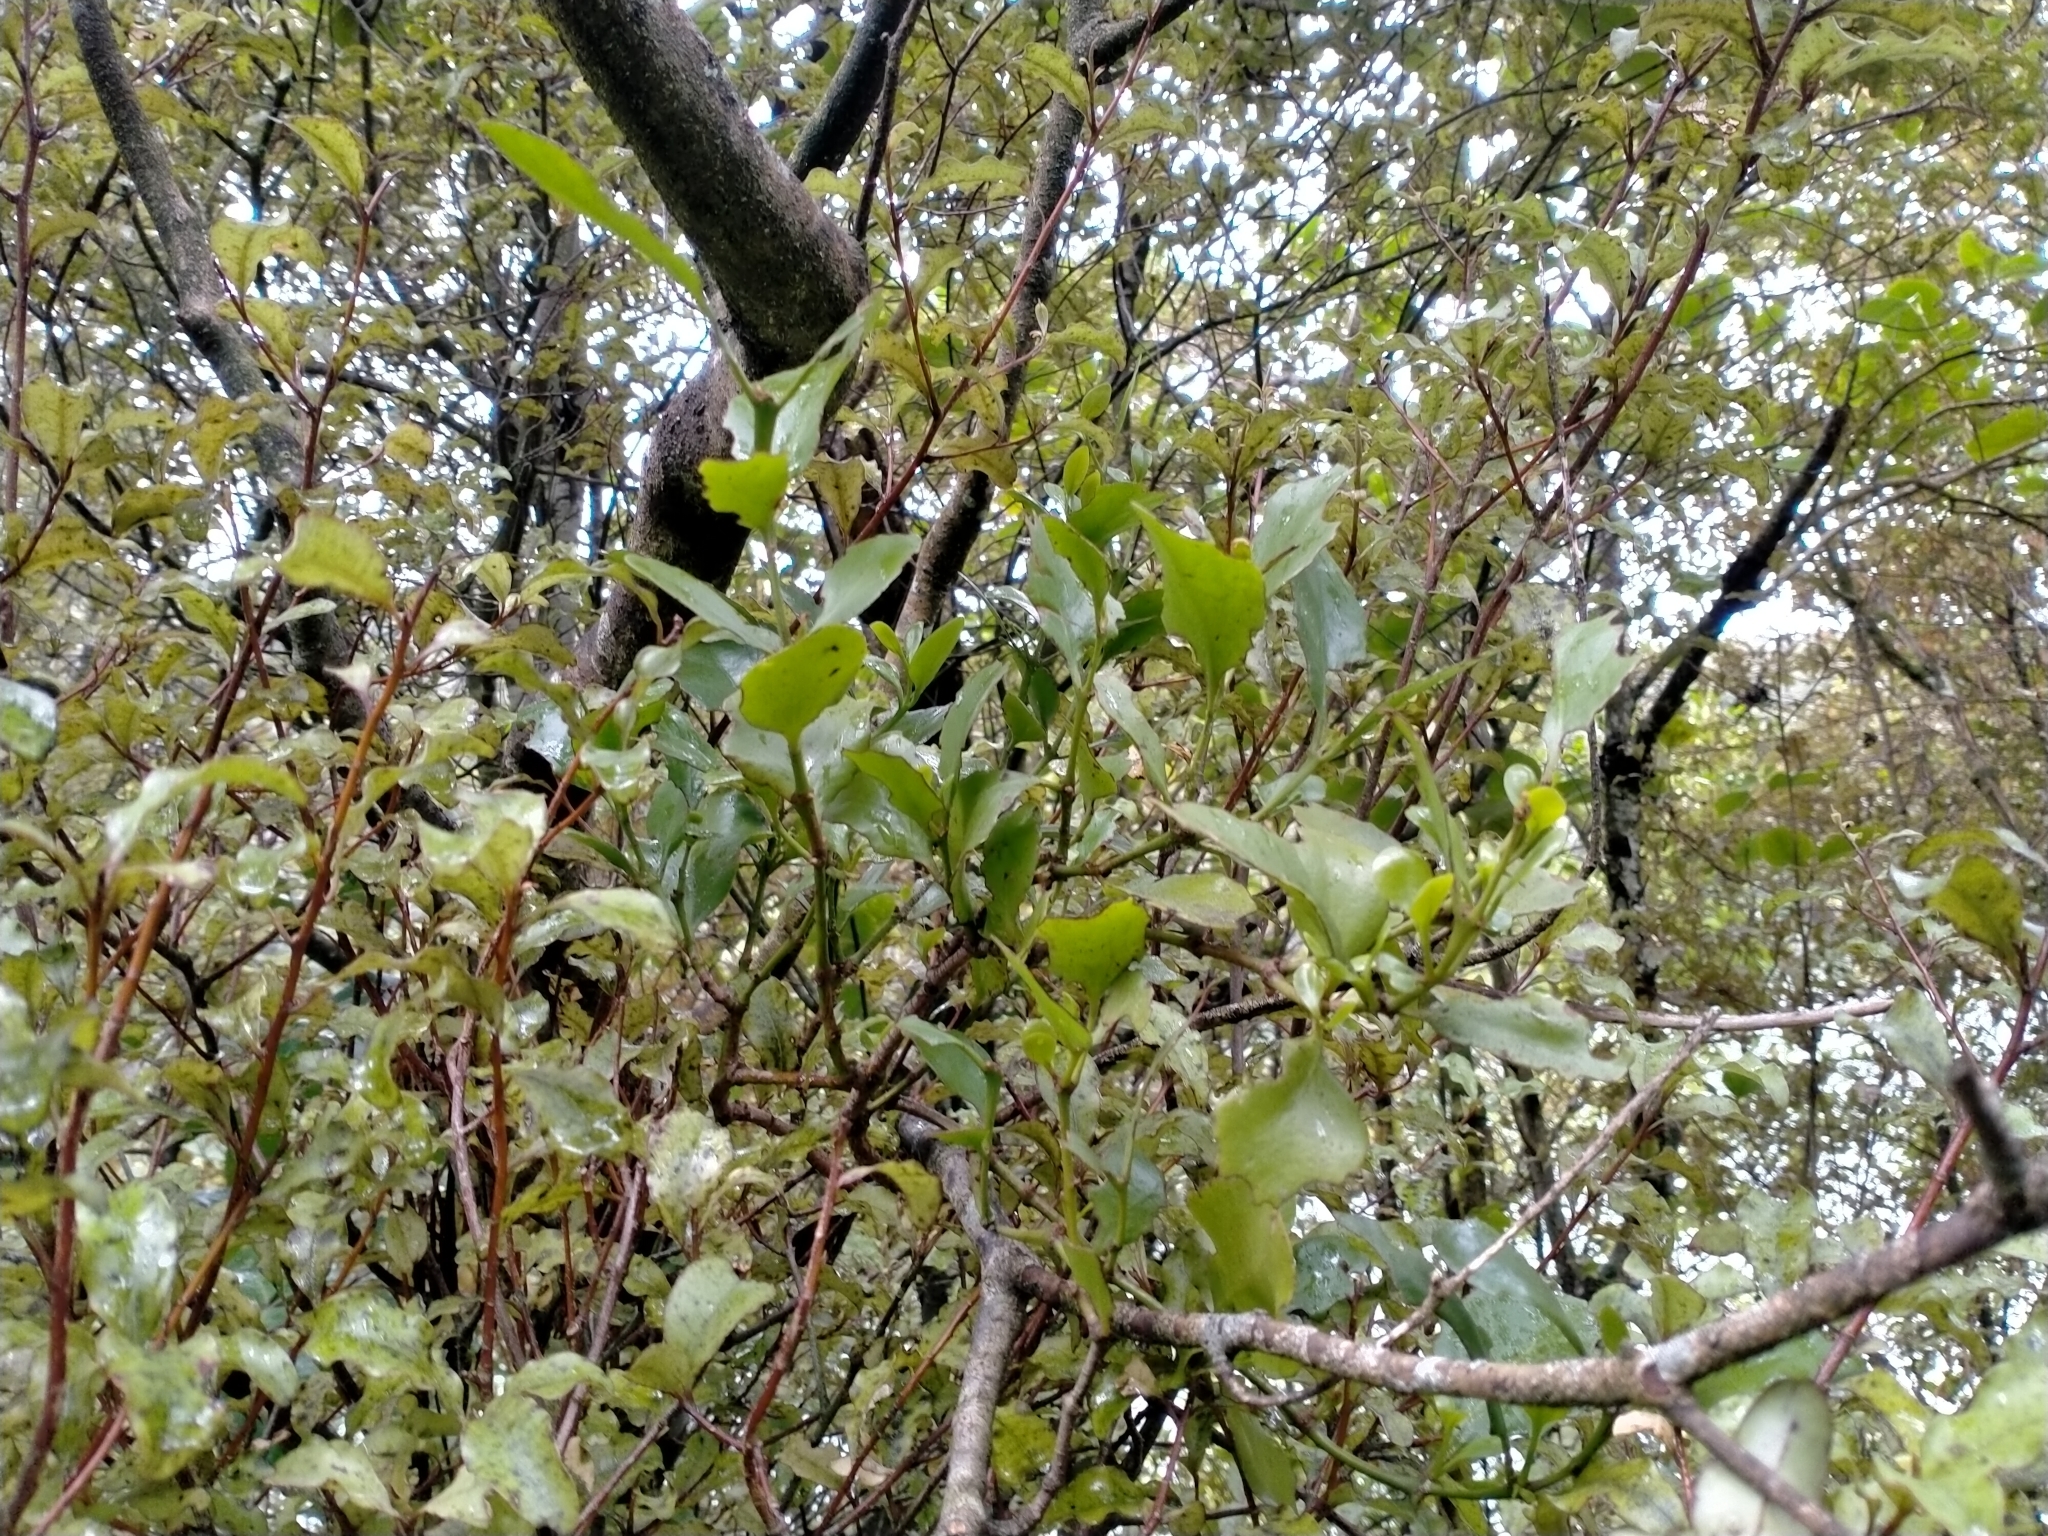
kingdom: Plantae
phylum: Tracheophyta
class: Magnoliopsida
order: Santalales
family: Loranthaceae
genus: Ileostylus
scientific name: Ileostylus micranthus
